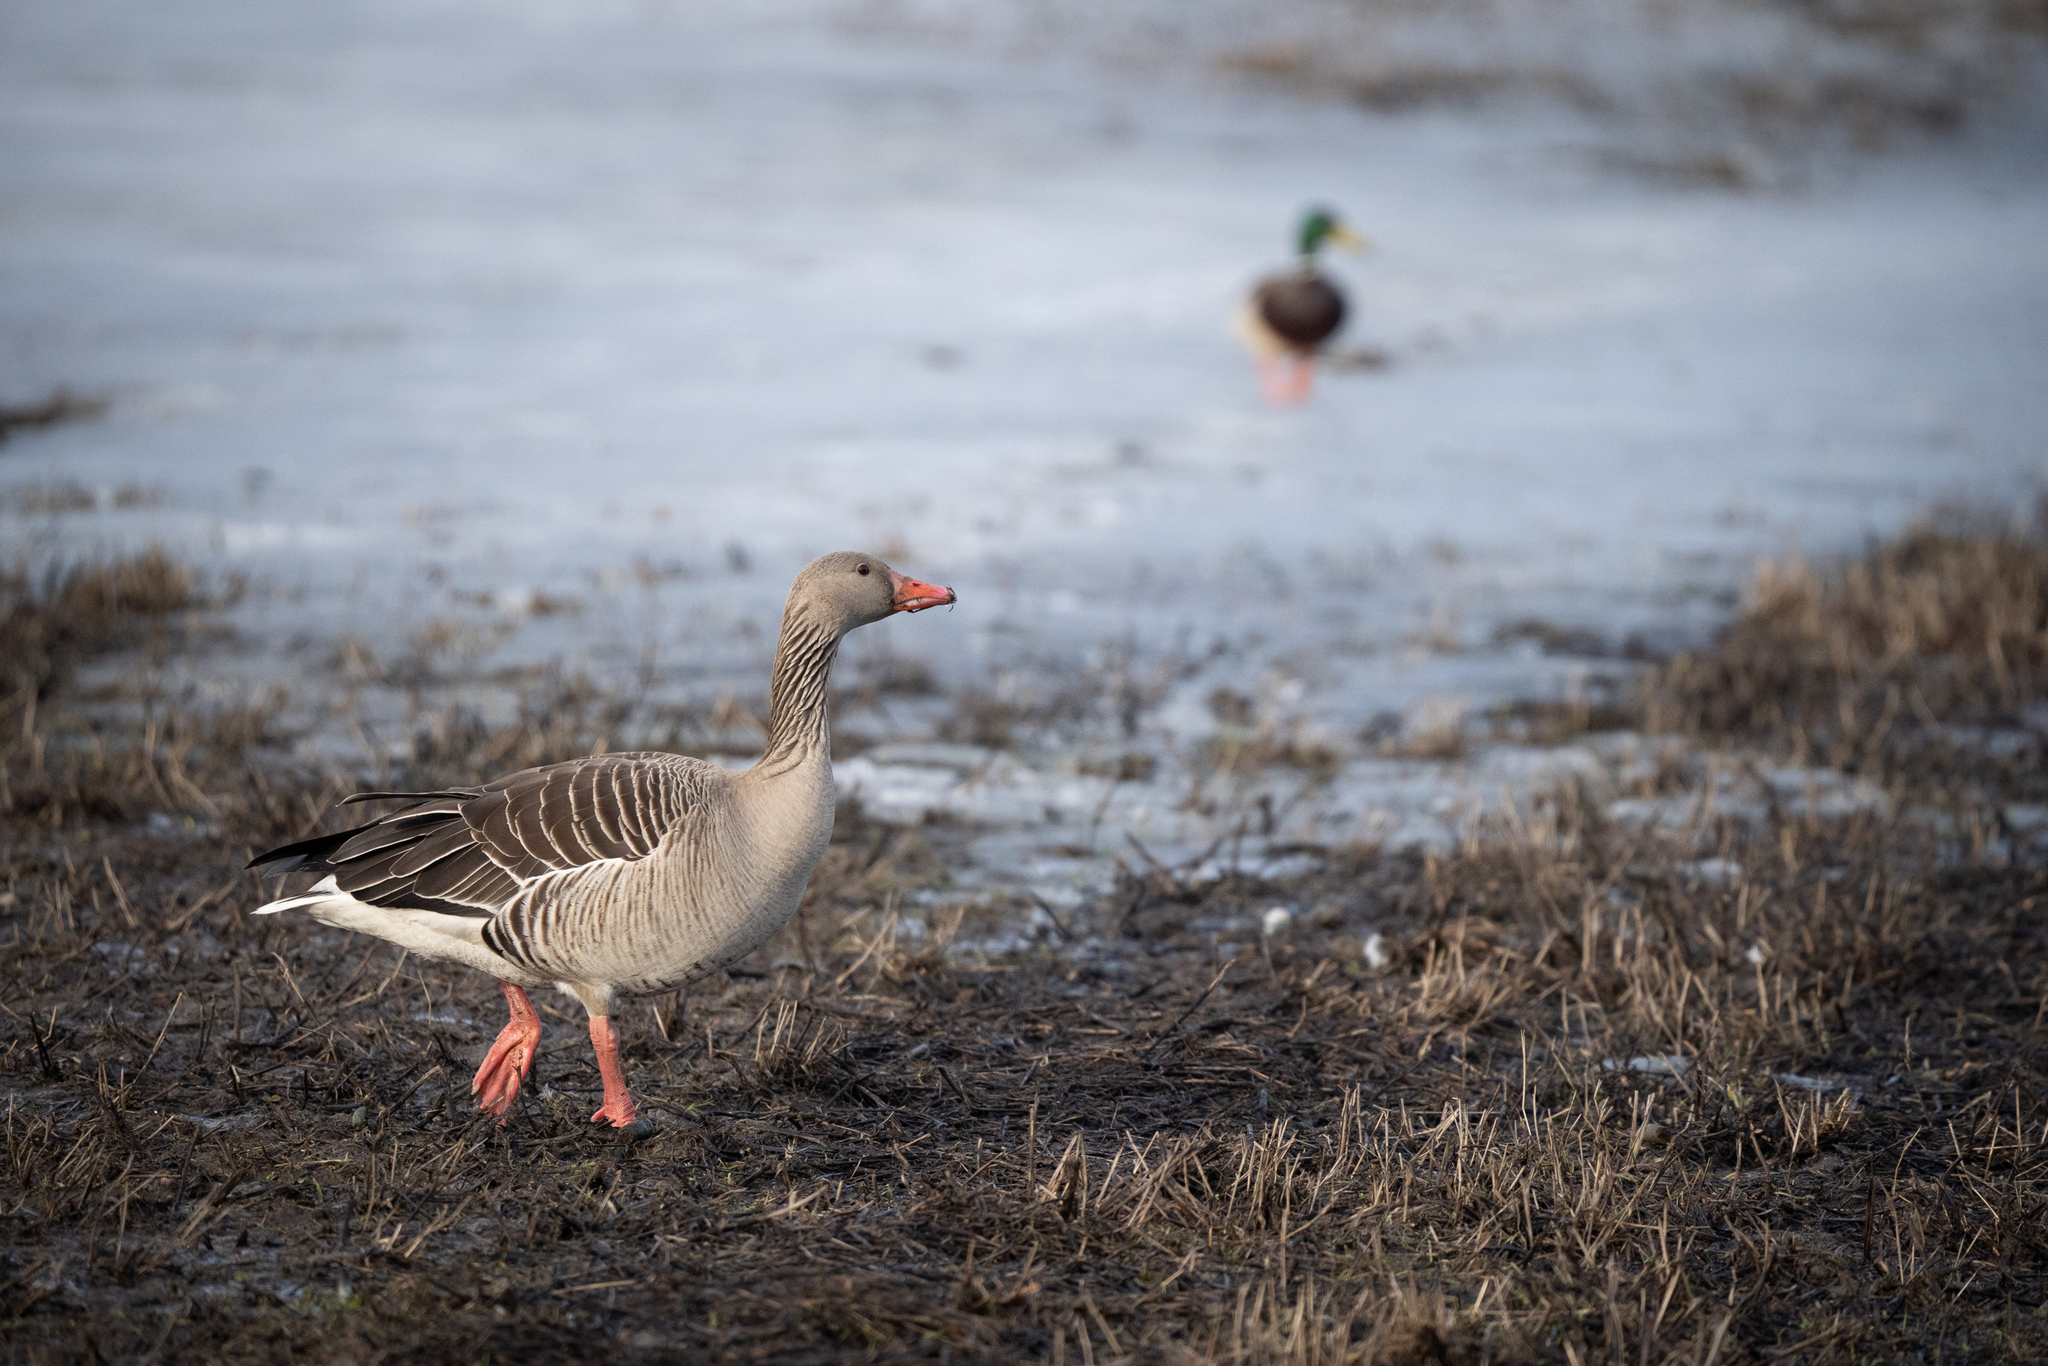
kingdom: Animalia
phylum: Chordata
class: Aves
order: Anseriformes
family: Anatidae
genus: Anser
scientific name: Anser anser
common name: Greylag goose
